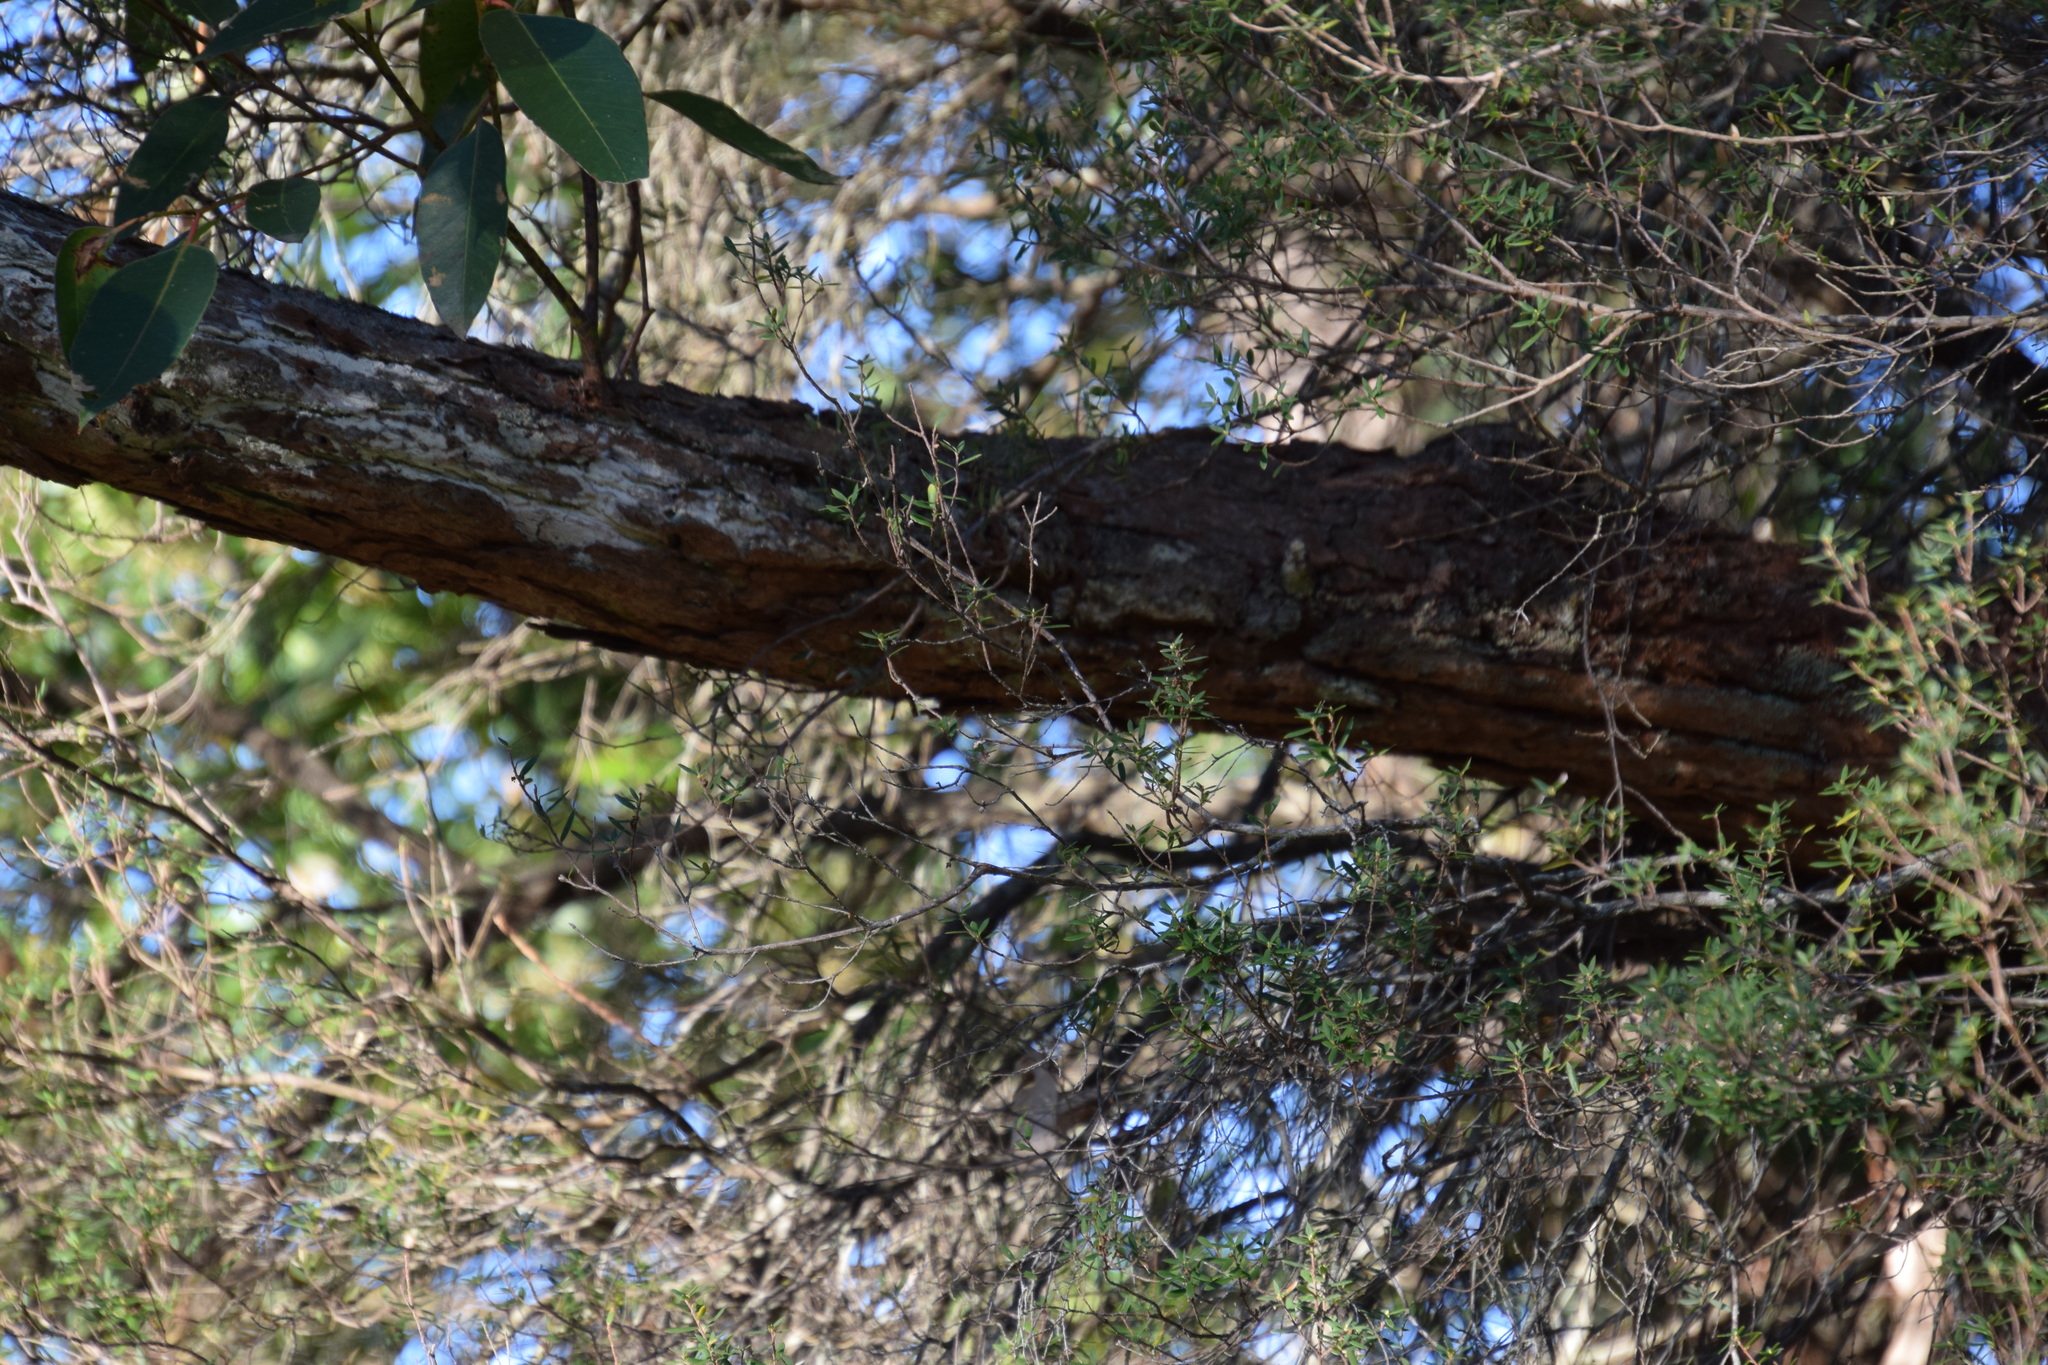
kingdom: Plantae
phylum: Tracheophyta
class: Magnoliopsida
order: Myrtales
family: Myrtaceae
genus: Eucalyptus
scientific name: Eucalyptus robusta
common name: Swampmahogany
